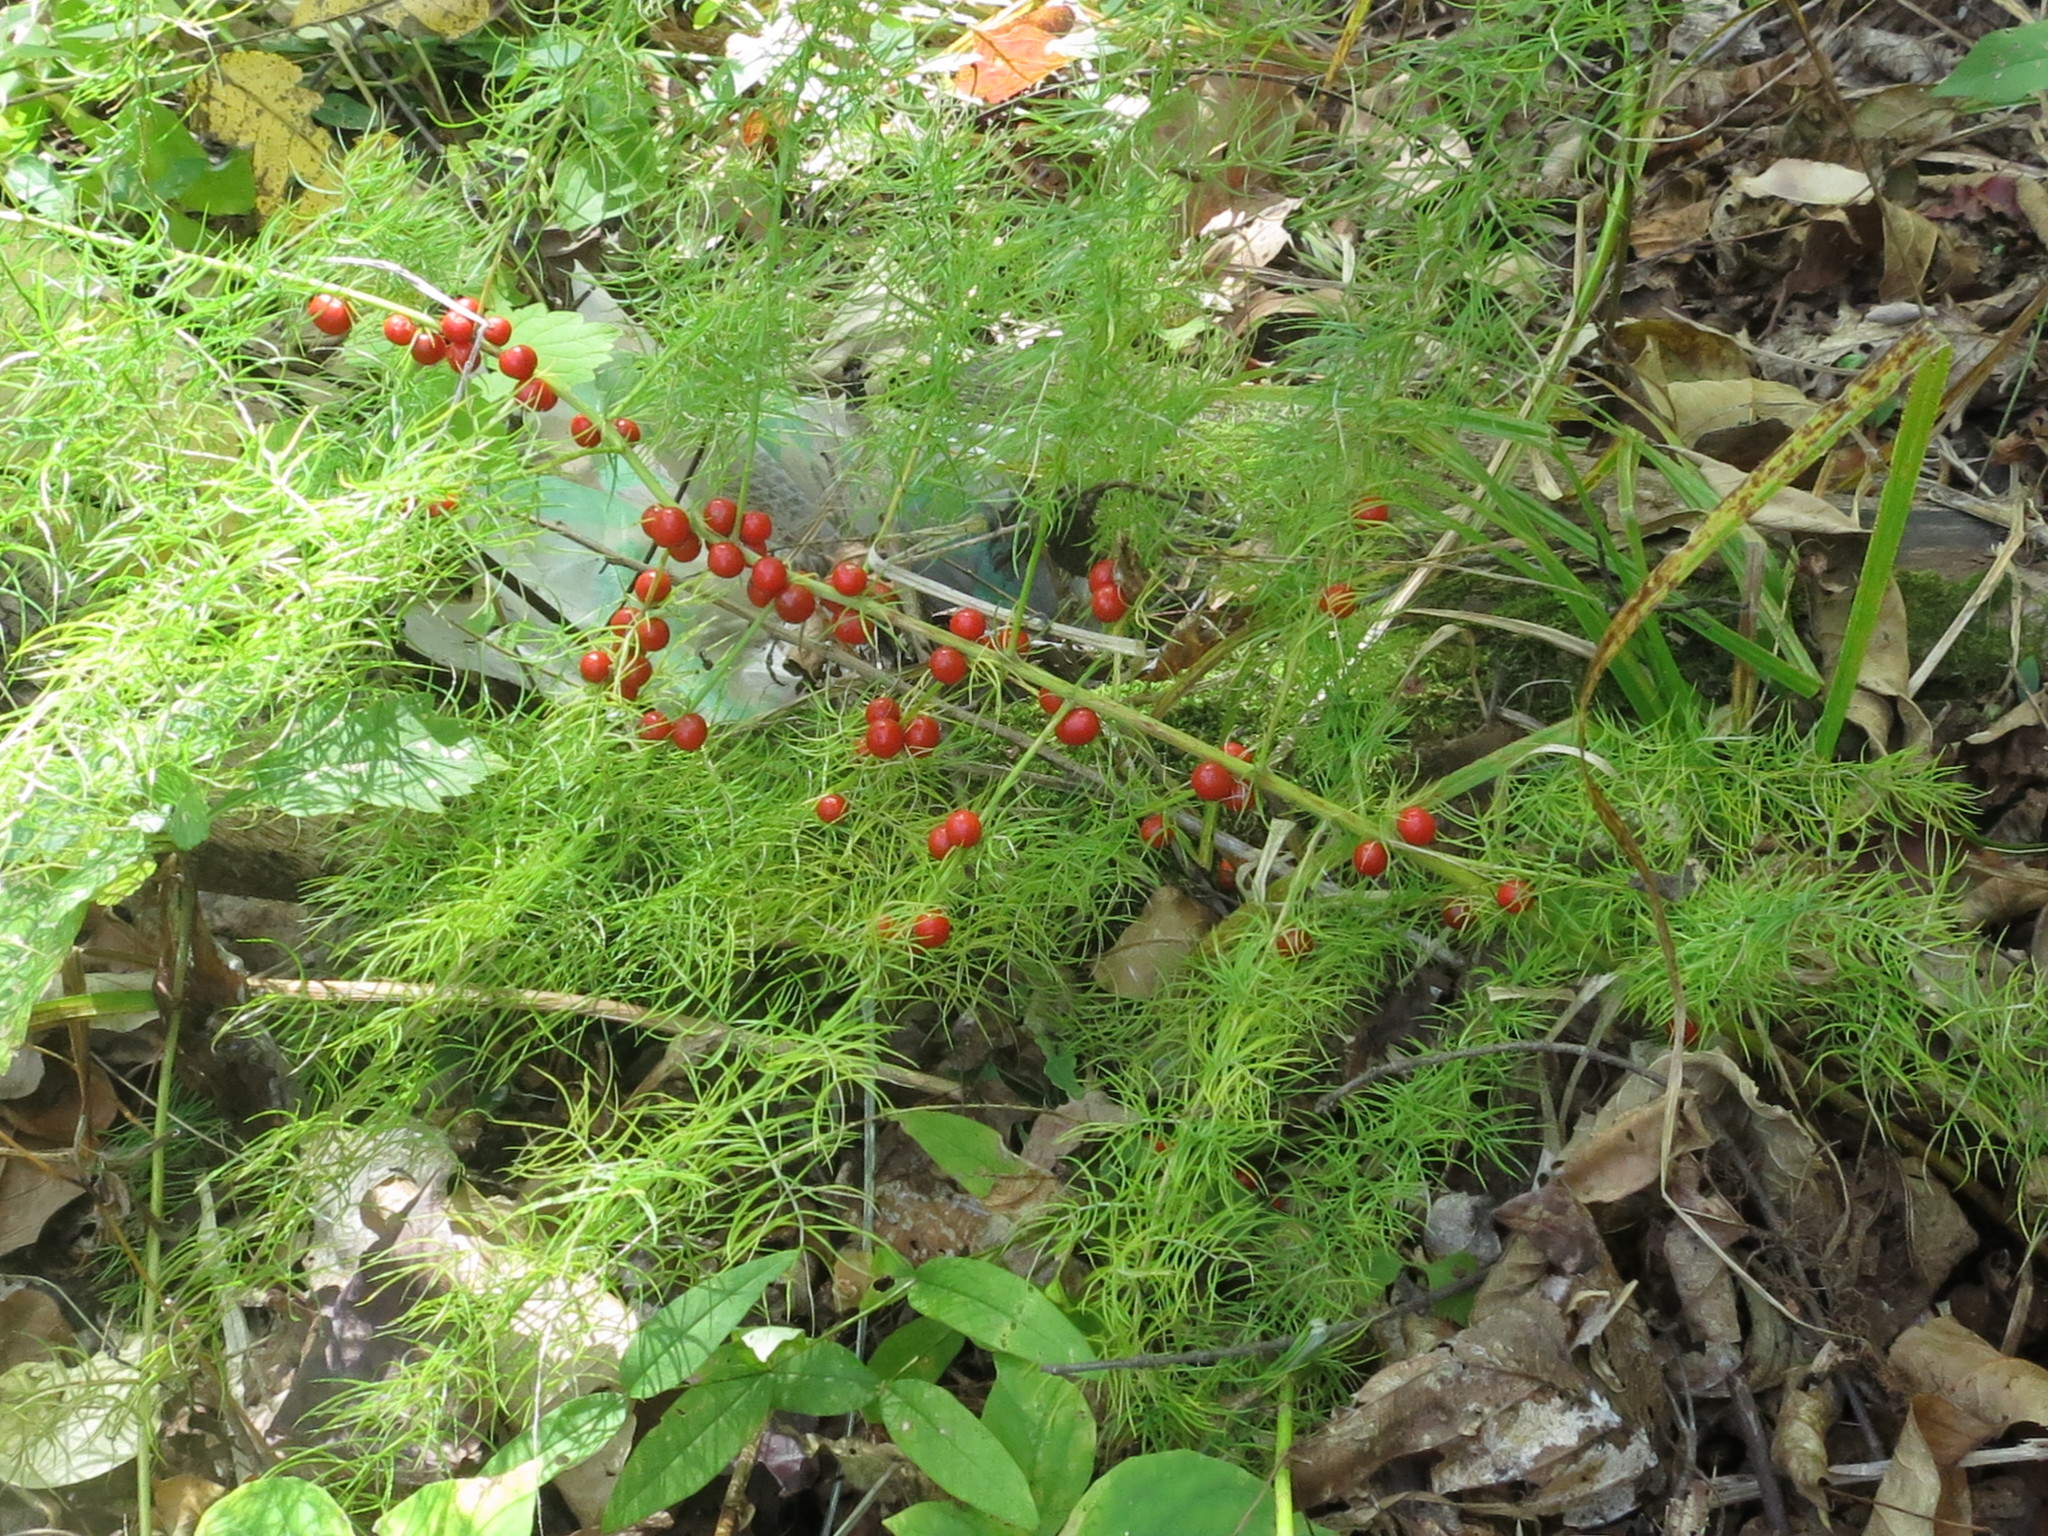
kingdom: Plantae
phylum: Tracheophyta
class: Liliopsida
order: Asparagales
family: Asparagaceae
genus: Asparagus
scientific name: Asparagus schoberioides
